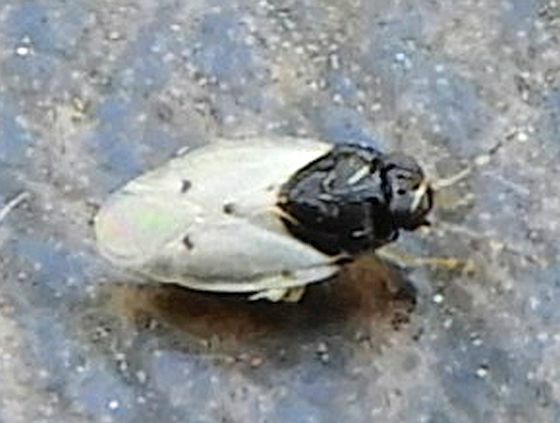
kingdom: Animalia
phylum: Arthropoda
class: Insecta
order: Hemiptera
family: Miridae
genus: Corticoris
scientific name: Corticoris pulchellus
